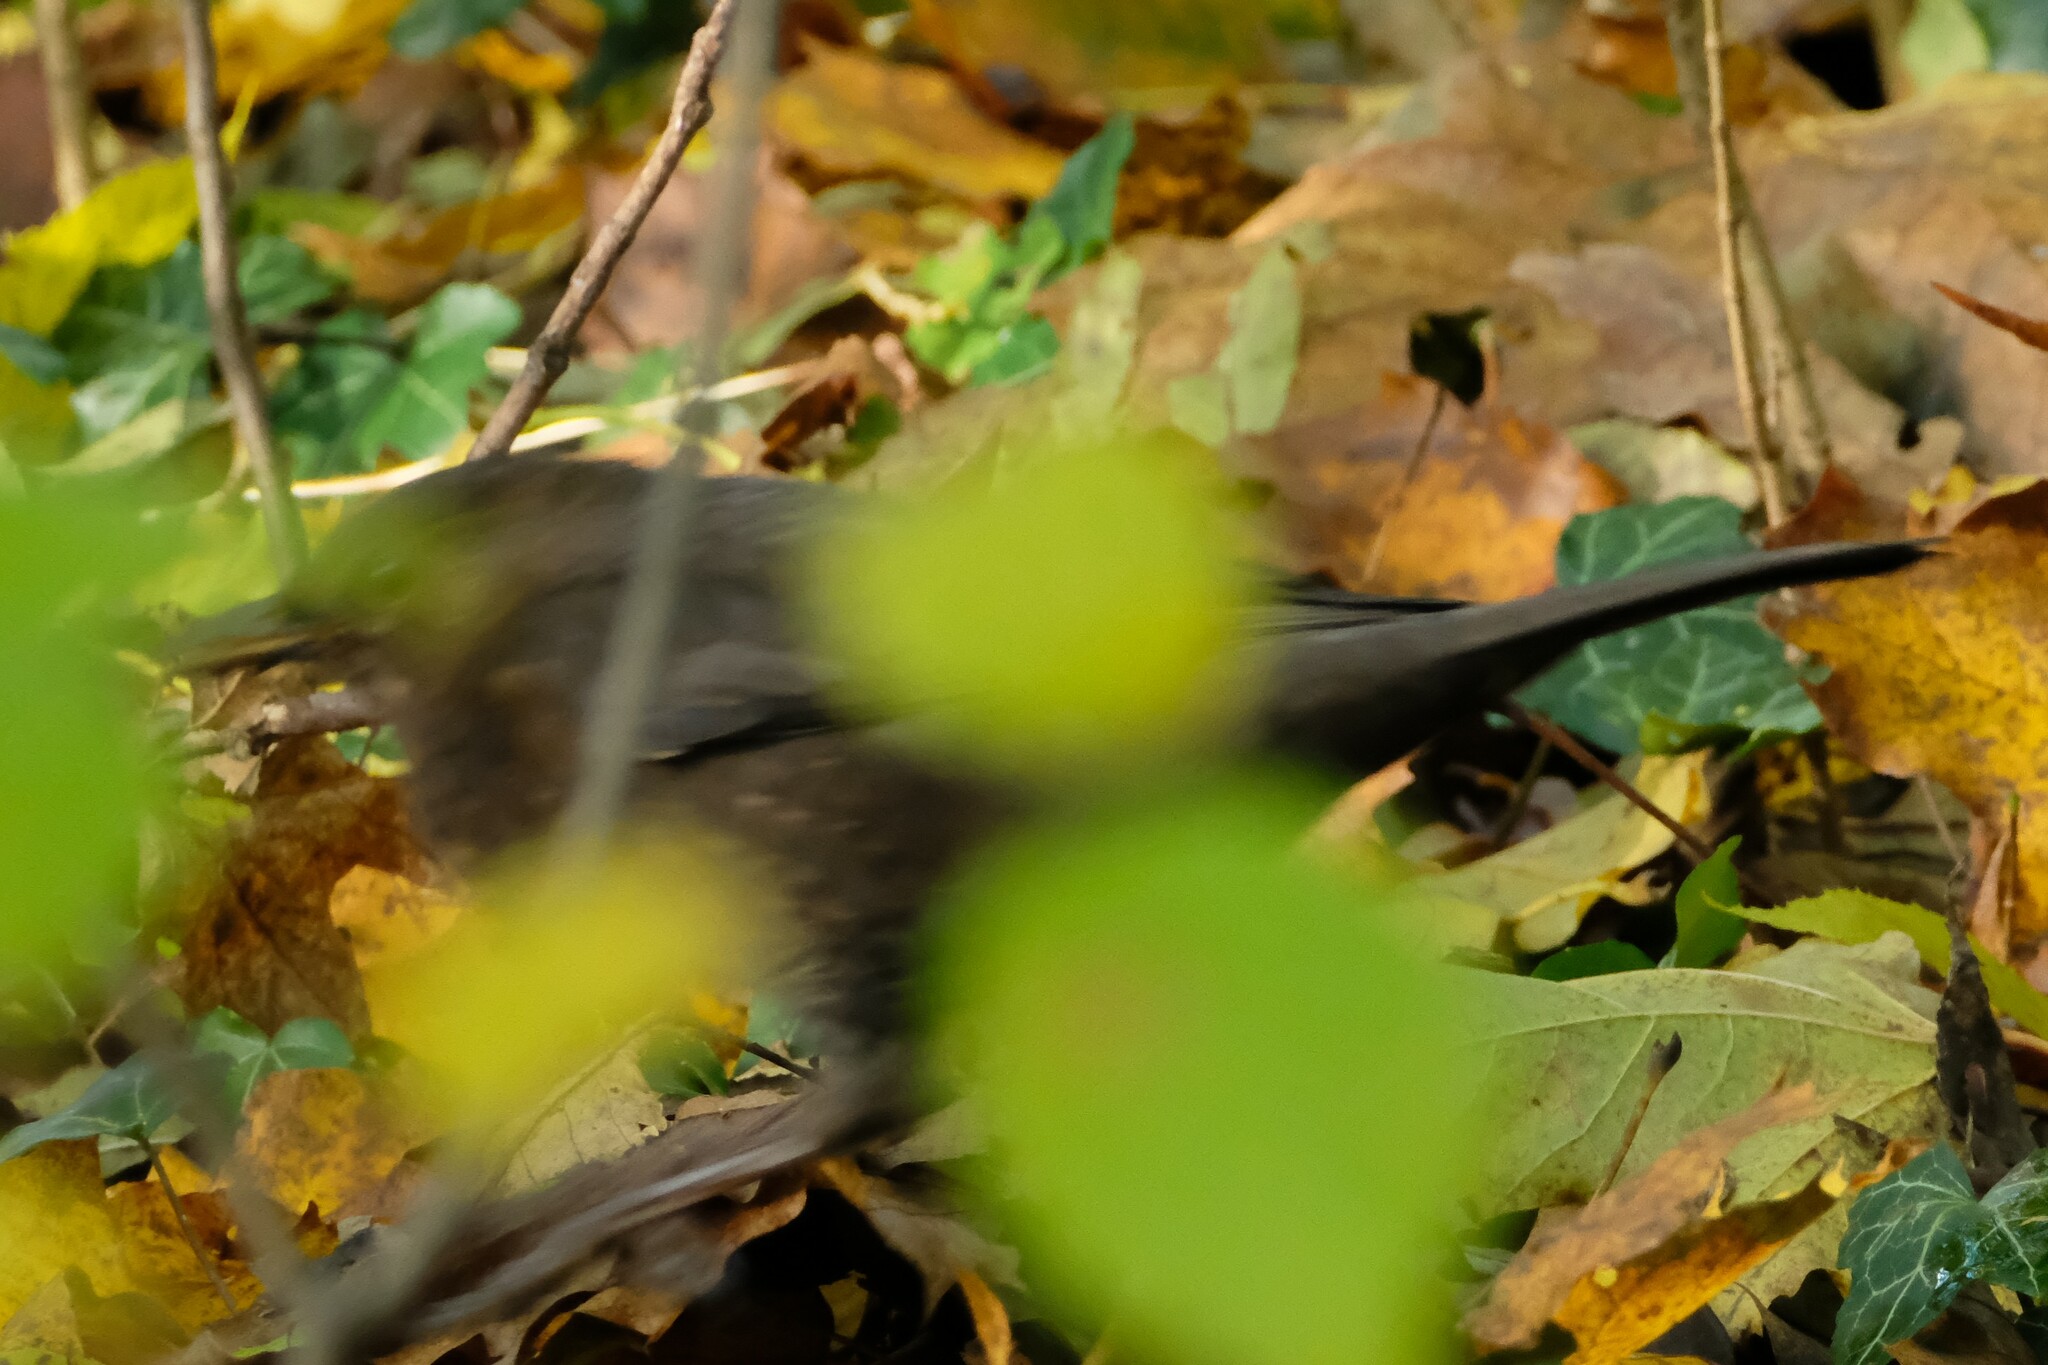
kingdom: Animalia
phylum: Chordata
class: Aves
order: Passeriformes
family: Turdidae
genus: Turdus
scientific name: Turdus merula
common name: Common blackbird
